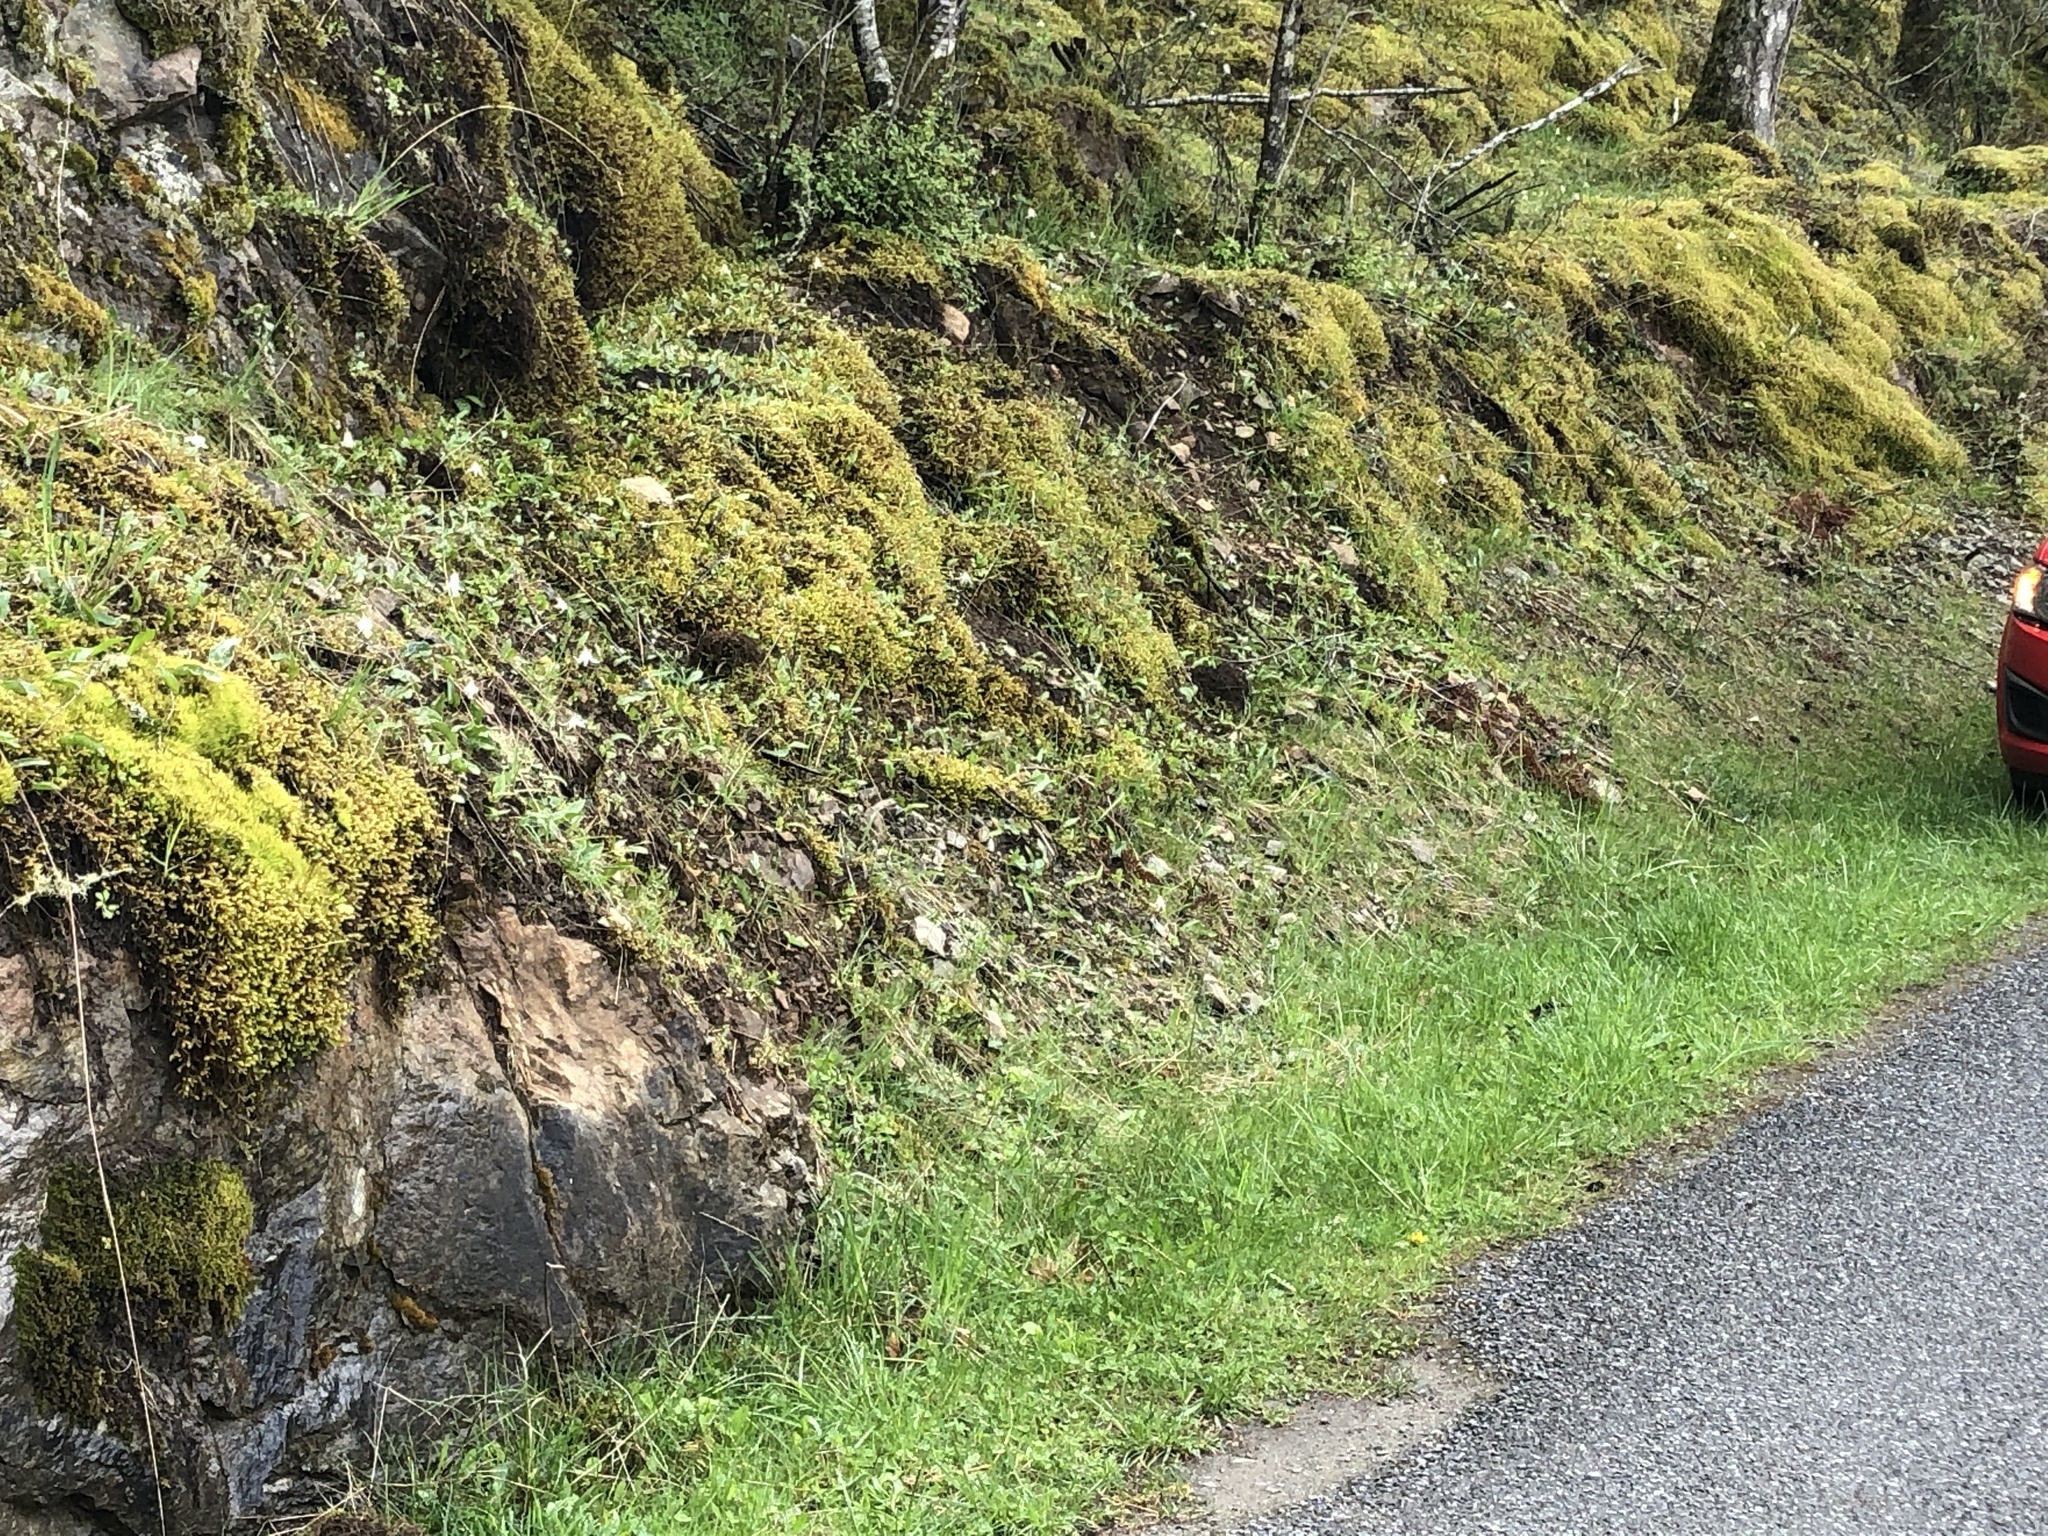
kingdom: Plantae
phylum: Tracheophyta
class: Liliopsida
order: Liliales
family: Liliaceae
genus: Erythronium
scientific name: Erythronium oregonum
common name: Giant adder's-tongue
